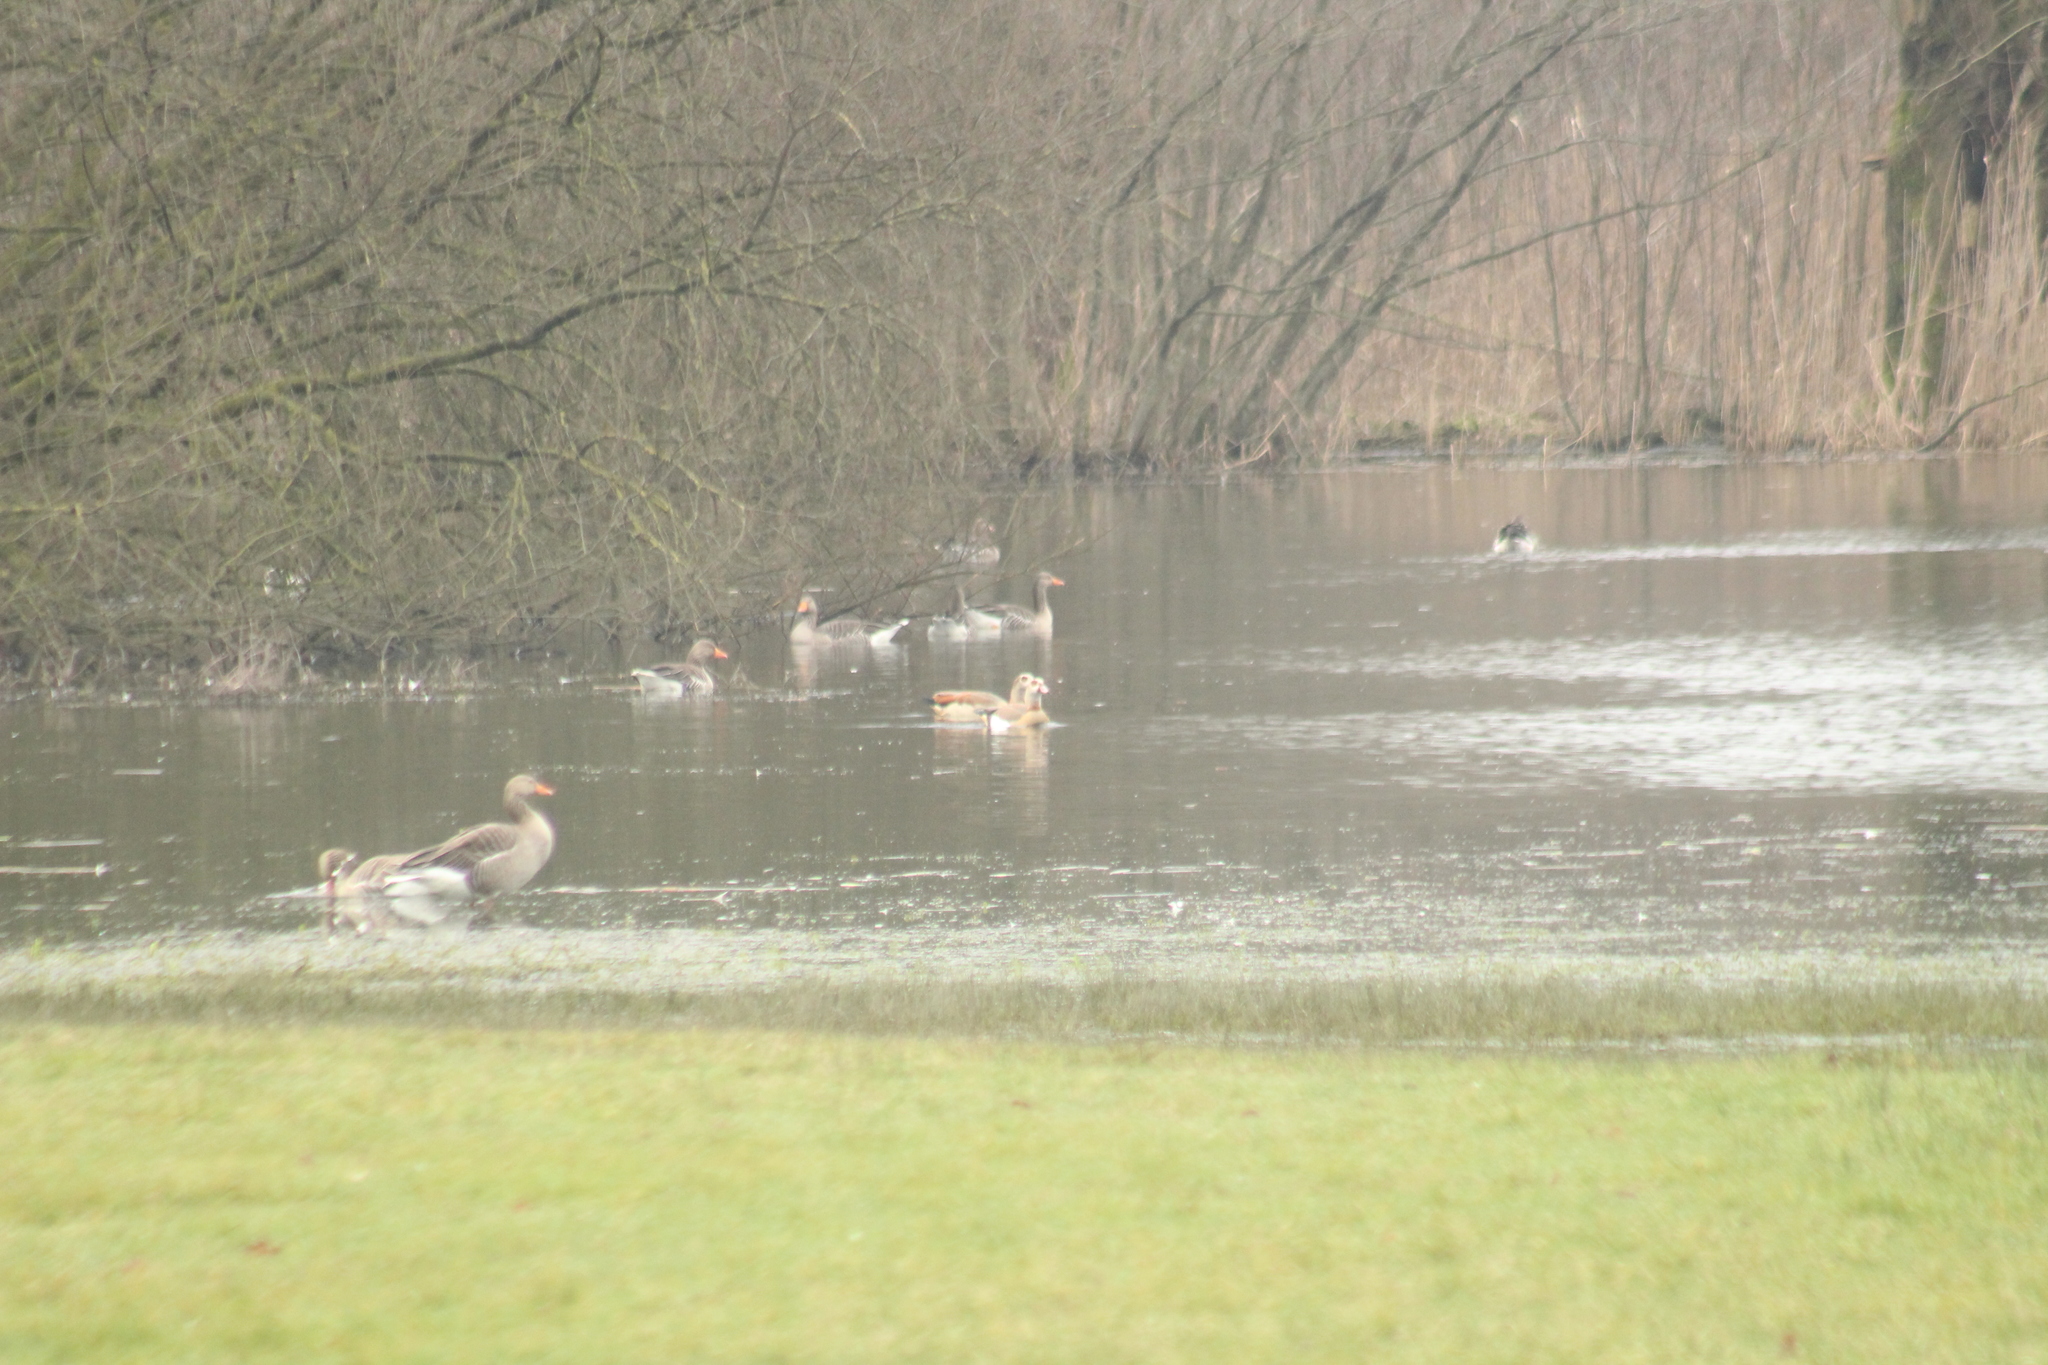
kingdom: Animalia
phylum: Chordata
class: Aves
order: Anseriformes
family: Anatidae
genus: Alopochen
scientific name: Alopochen aegyptiaca
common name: Egyptian goose
